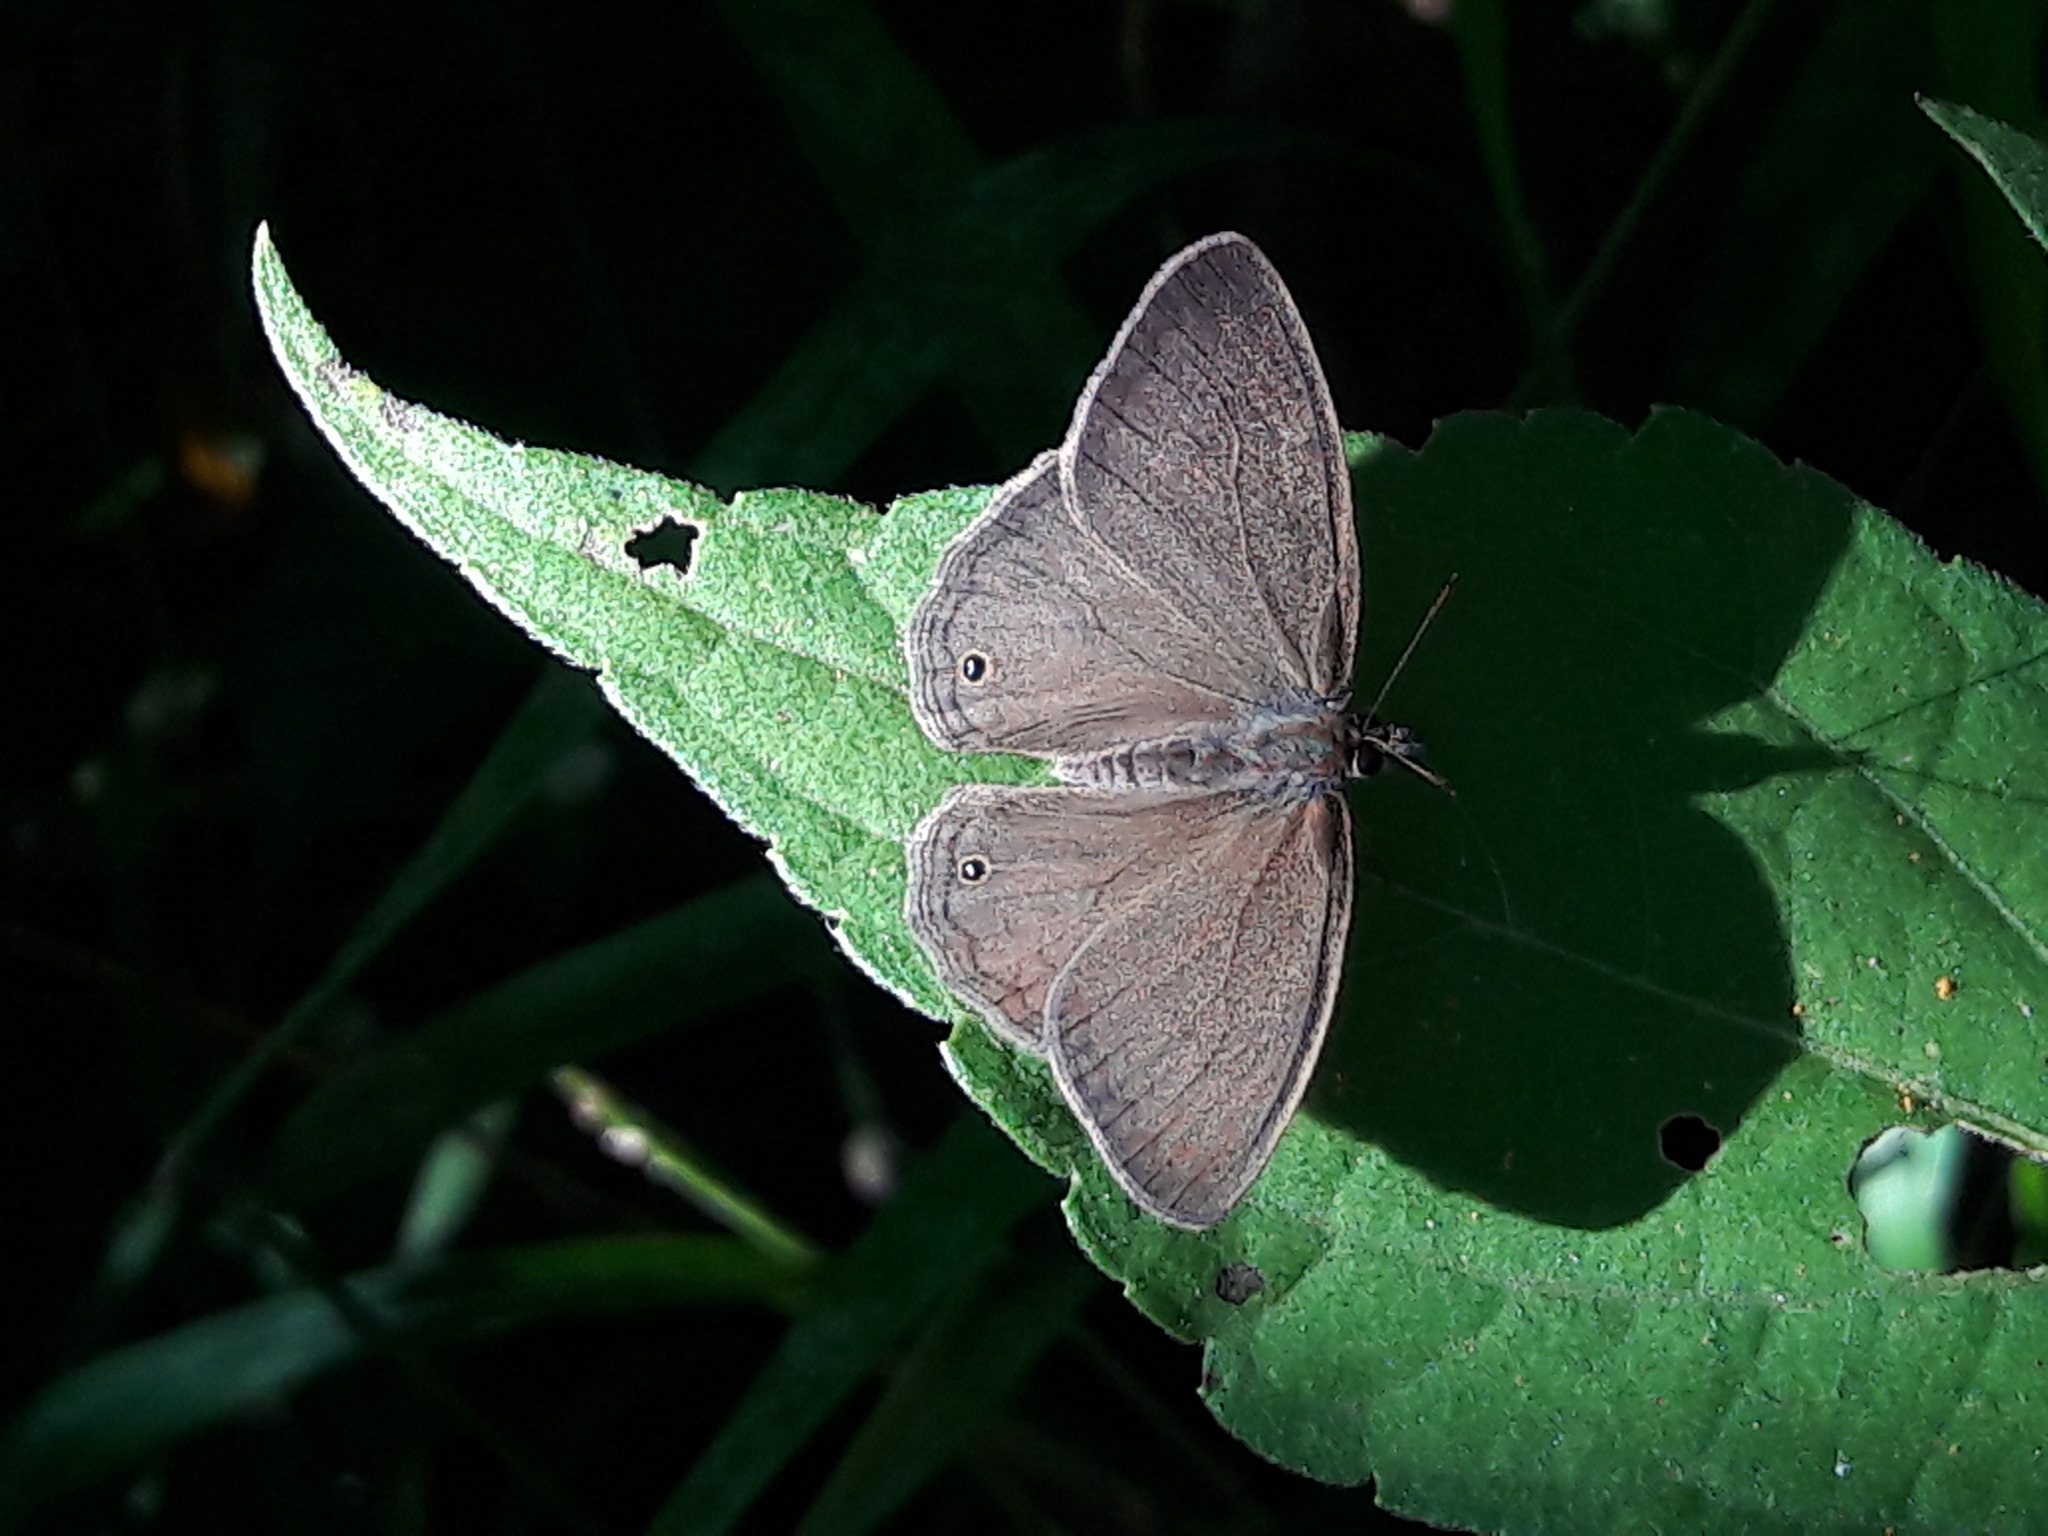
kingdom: Animalia
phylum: Arthropoda
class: Insecta
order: Lepidoptera
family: Nymphalidae
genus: Euptychia
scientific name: Euptychia Cissia eous
